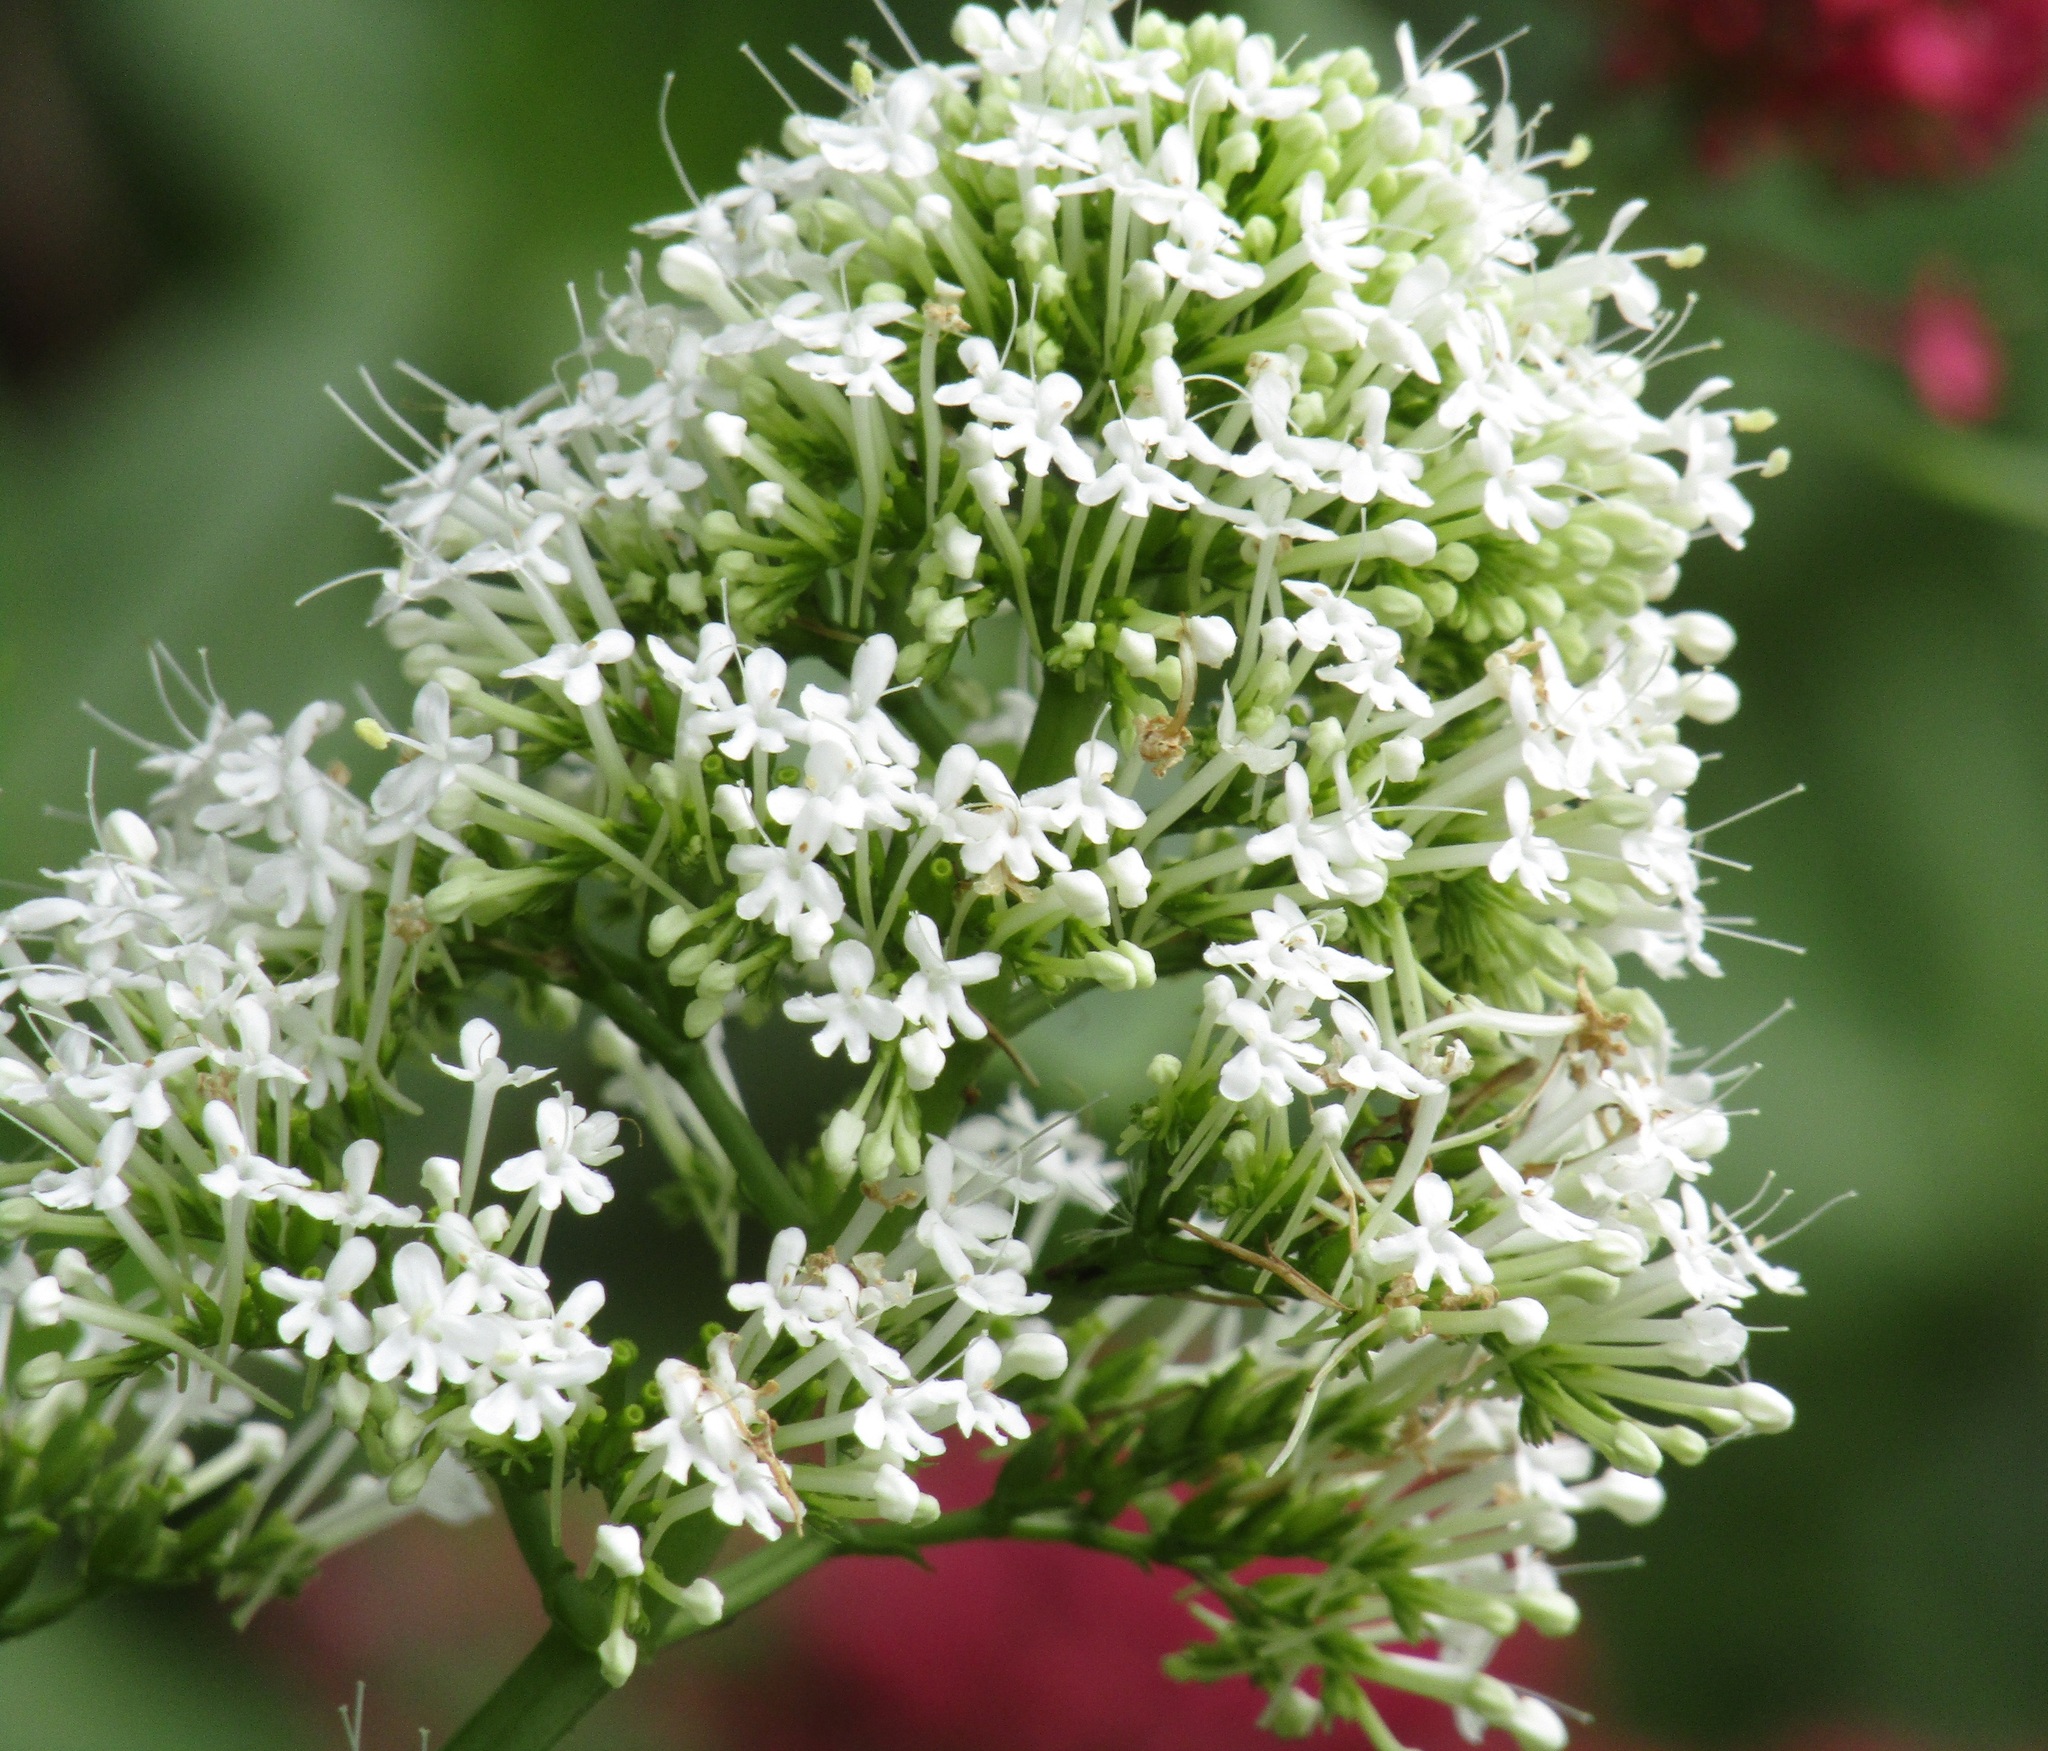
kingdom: Plantae
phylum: Tracheophyta
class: Magnoliopsida
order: Dipsacales
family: Caprifoliaceae
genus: Centranthus
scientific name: Centranthus ruber
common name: Red valerian
